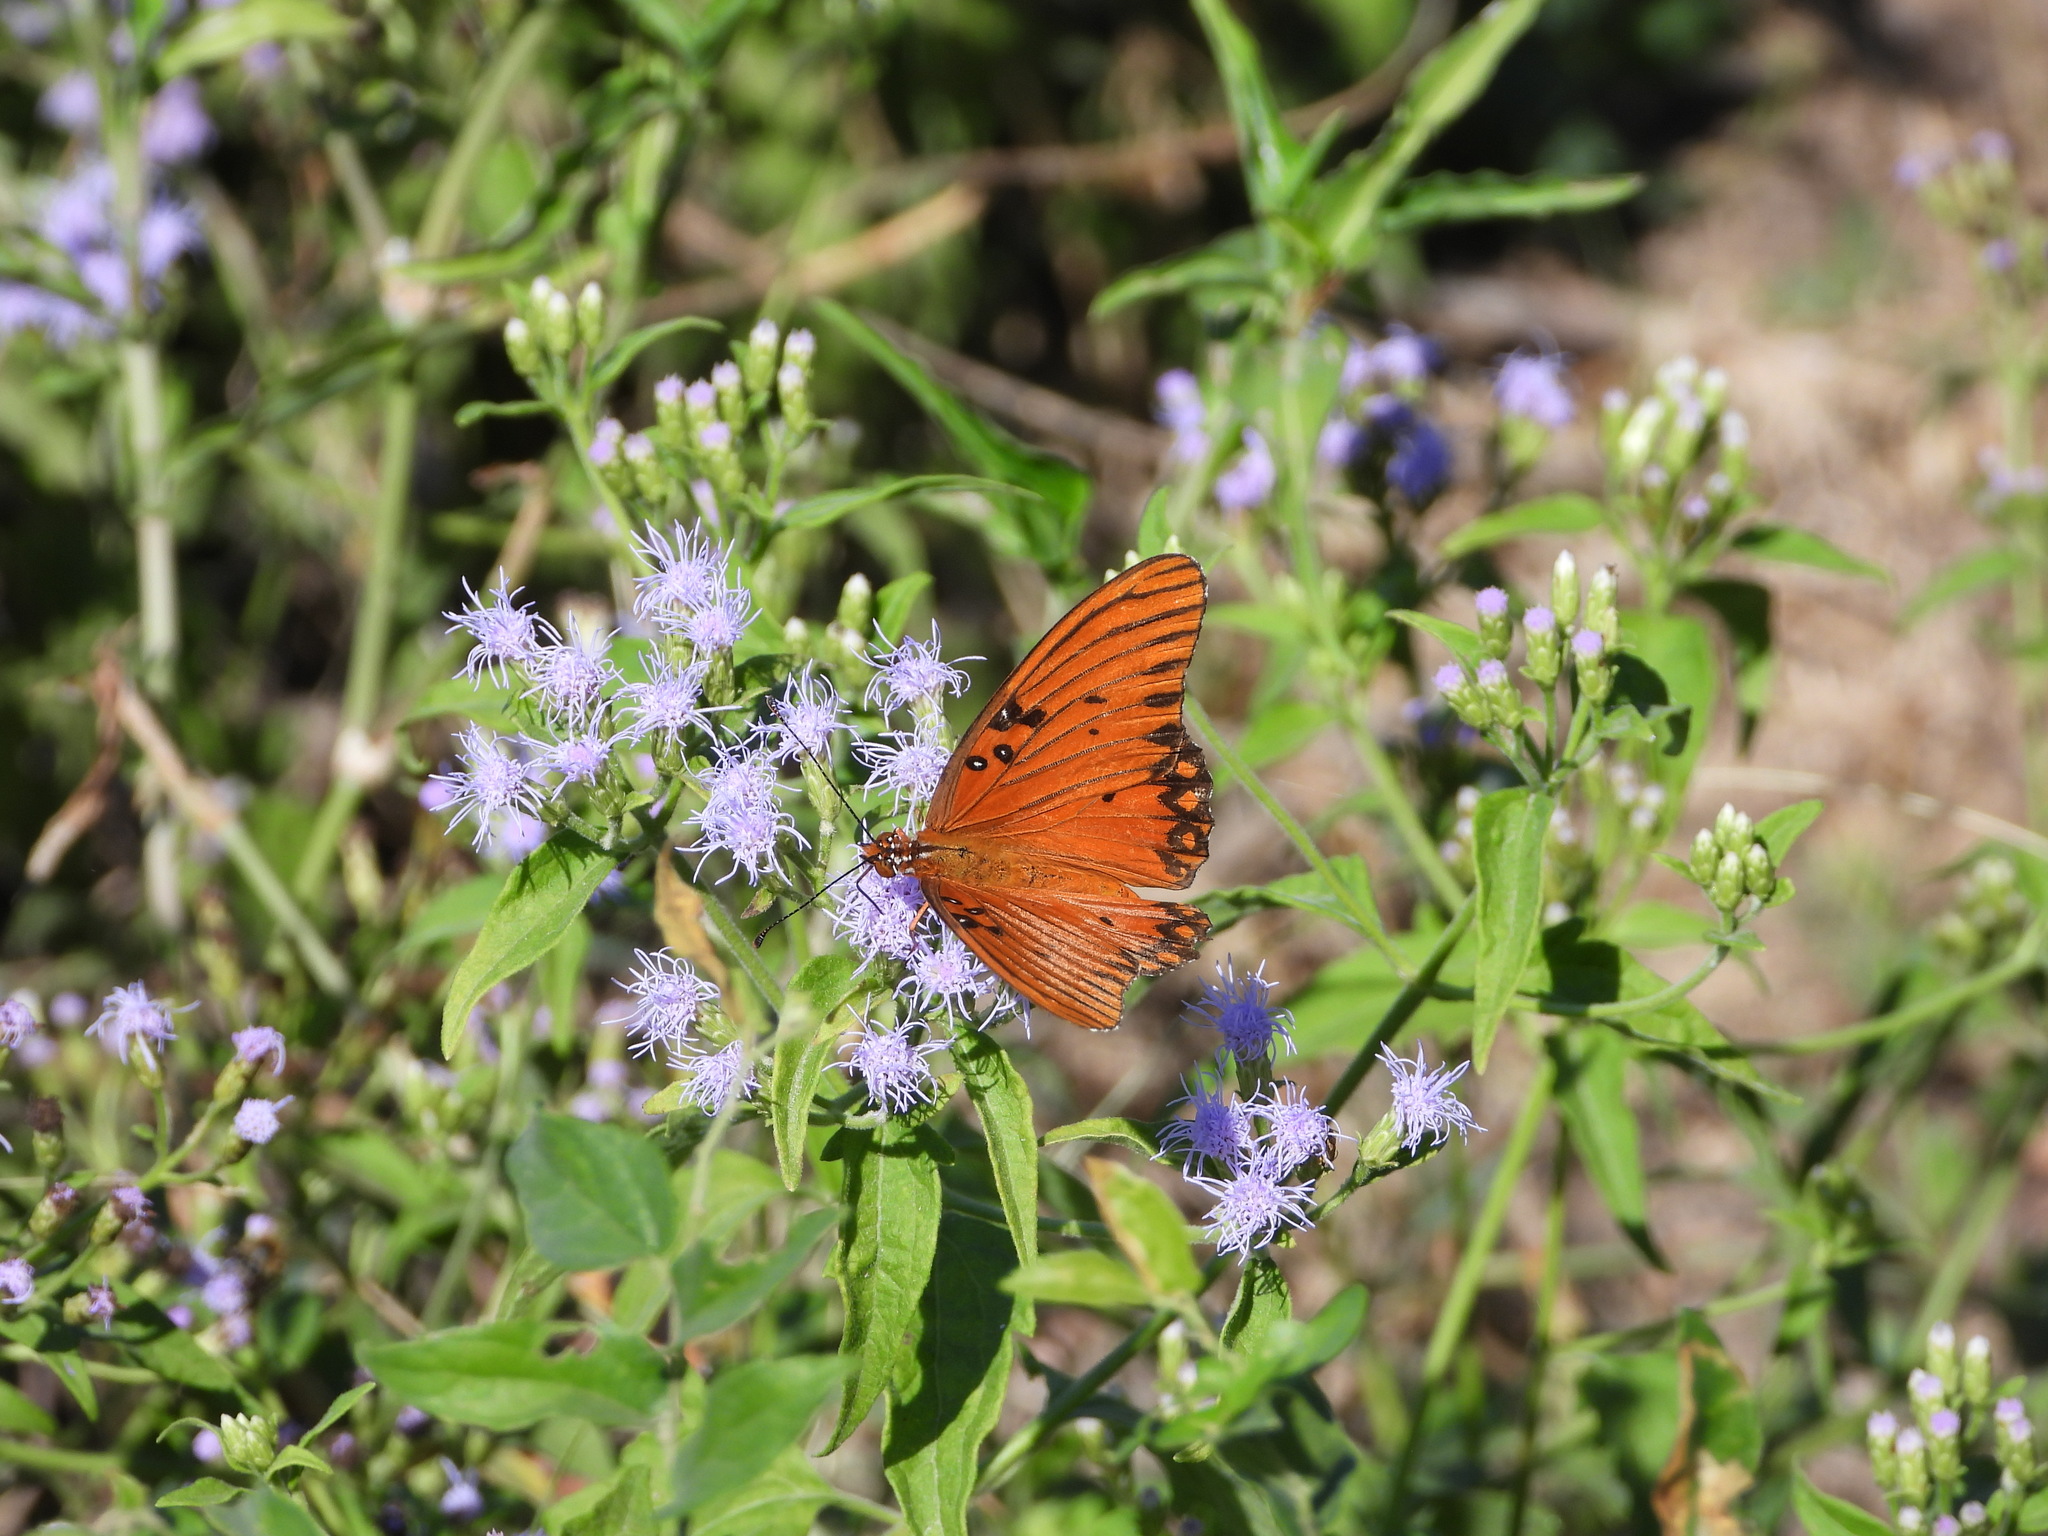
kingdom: Animalia
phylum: Arthropoda
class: Insecta
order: Lepidoptera
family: Nymphalidae
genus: Dione
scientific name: Dione vanillae
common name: Gulf fritillary
